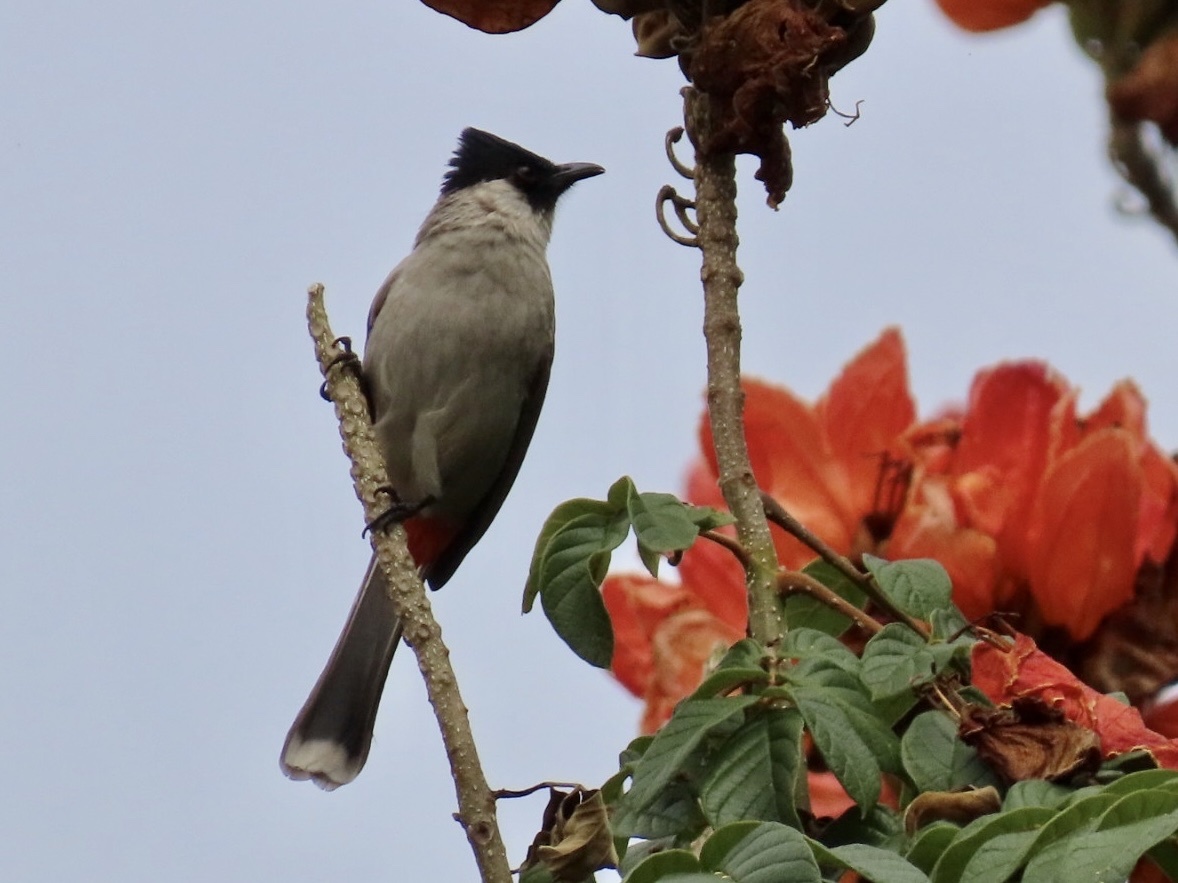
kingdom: Animalia
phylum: Chordata
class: Aves
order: Passeriformes
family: Pycnonotidae
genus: Pycnonotus
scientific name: Pycnonotus aurigaster
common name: Sooty-headed bulbul
